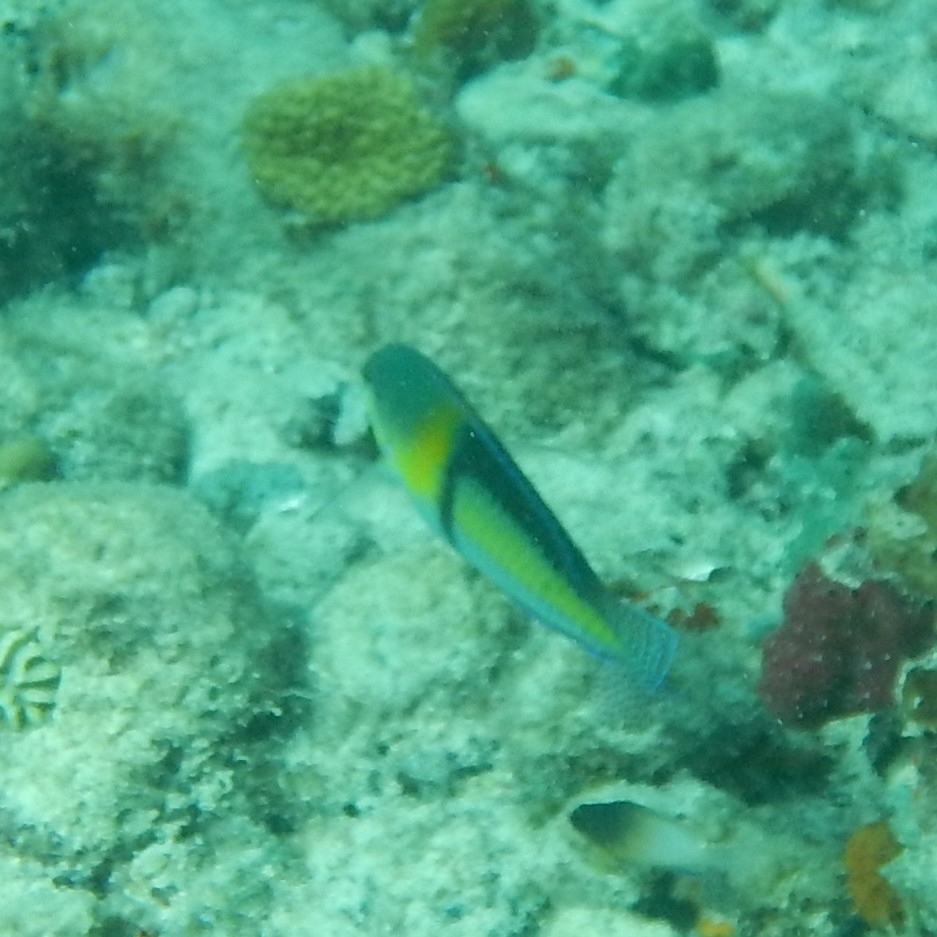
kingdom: Animalia
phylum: Chordata
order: Perciformes
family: Labridae
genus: Halichoeres
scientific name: Halichoeres garnoti
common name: Yellowhead wrasse
